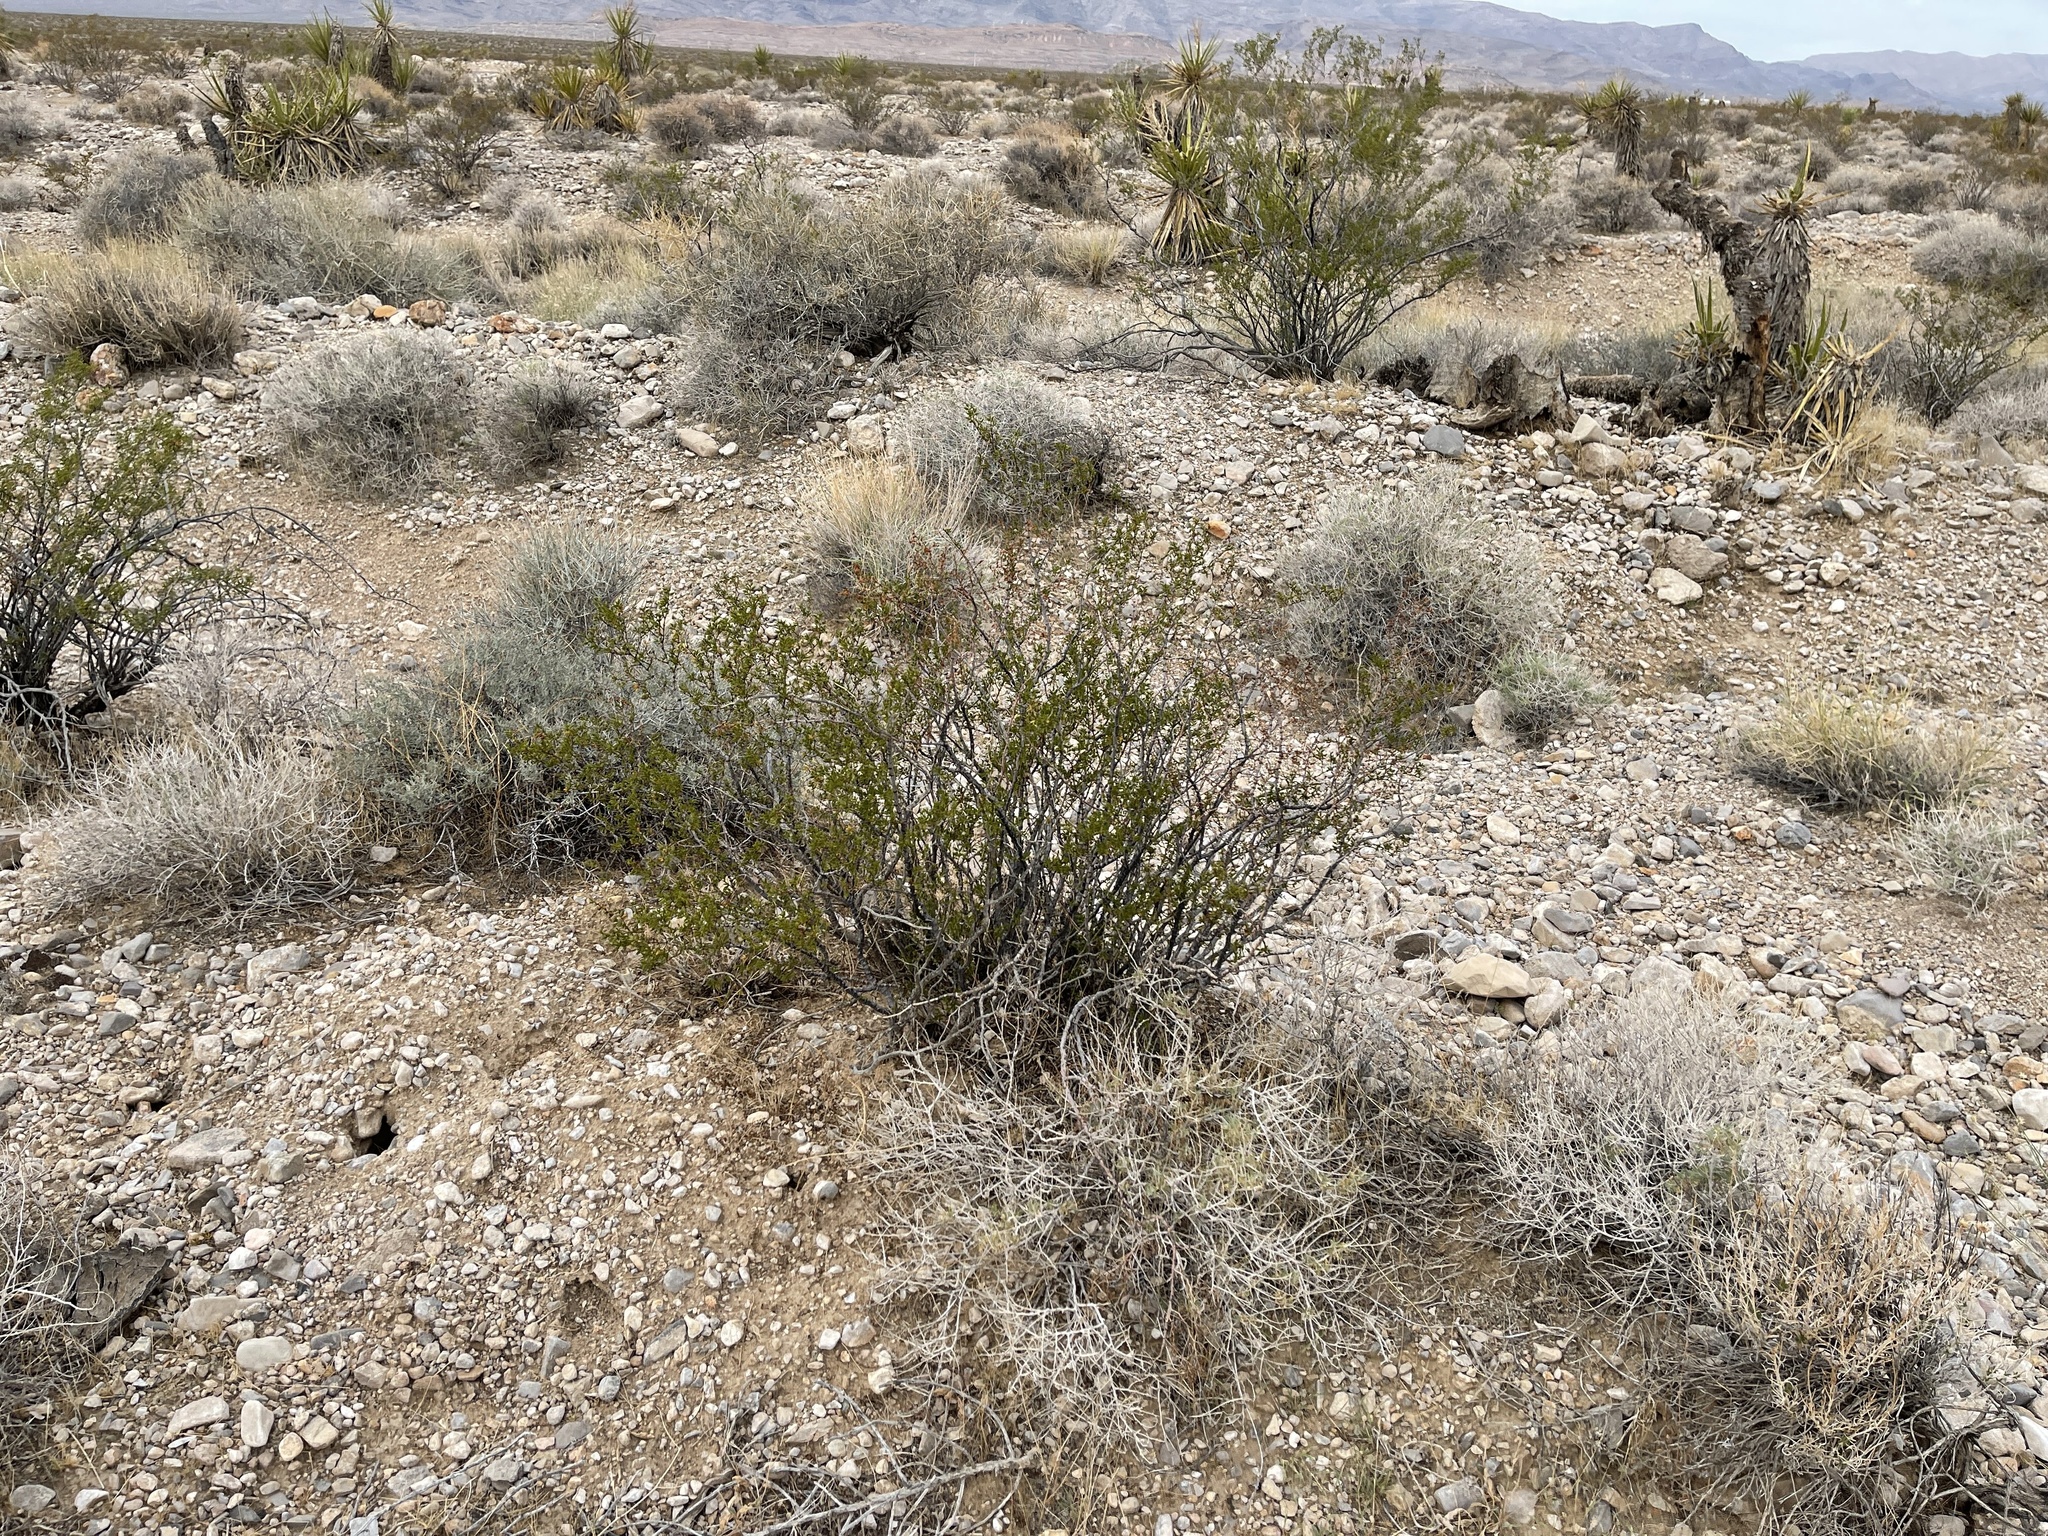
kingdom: Plantae
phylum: Tracheophyta
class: Magnoliopsida
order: Zygophyllales
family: Zygophyllaceae
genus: Larrea
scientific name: Larrea tridentata
